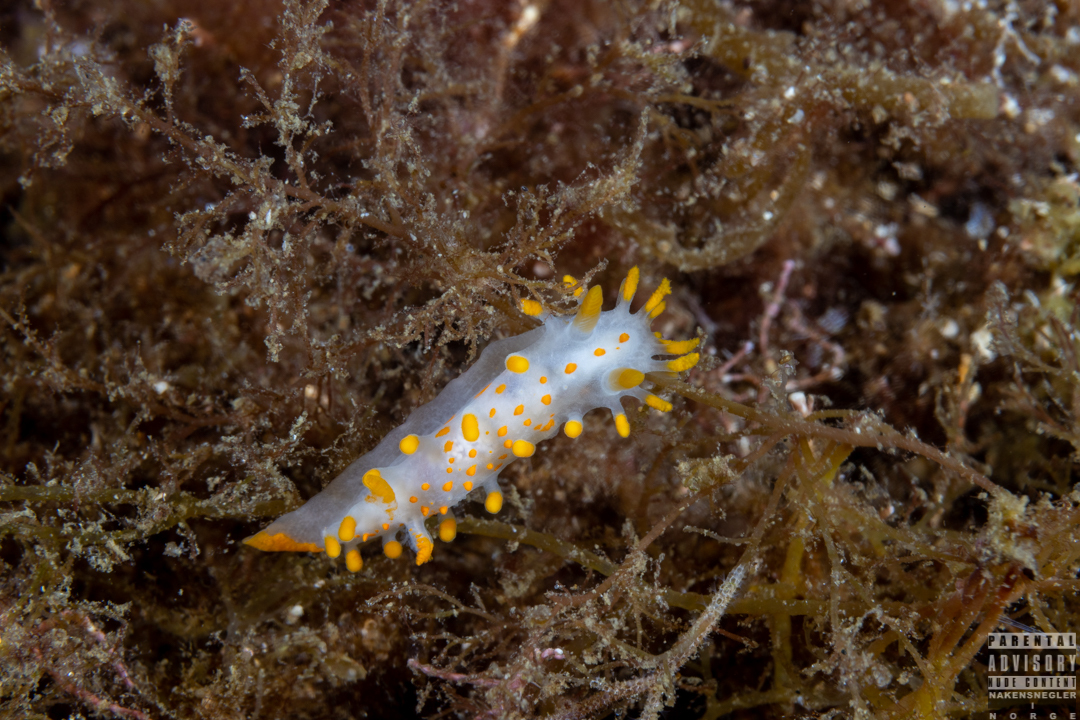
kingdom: Animalia
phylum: Mollusca
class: Gastropoda
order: Nudibranchia
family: Polyceridae
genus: Limacia
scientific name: Limacia clavigera
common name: Orange-clubbed sea slug
